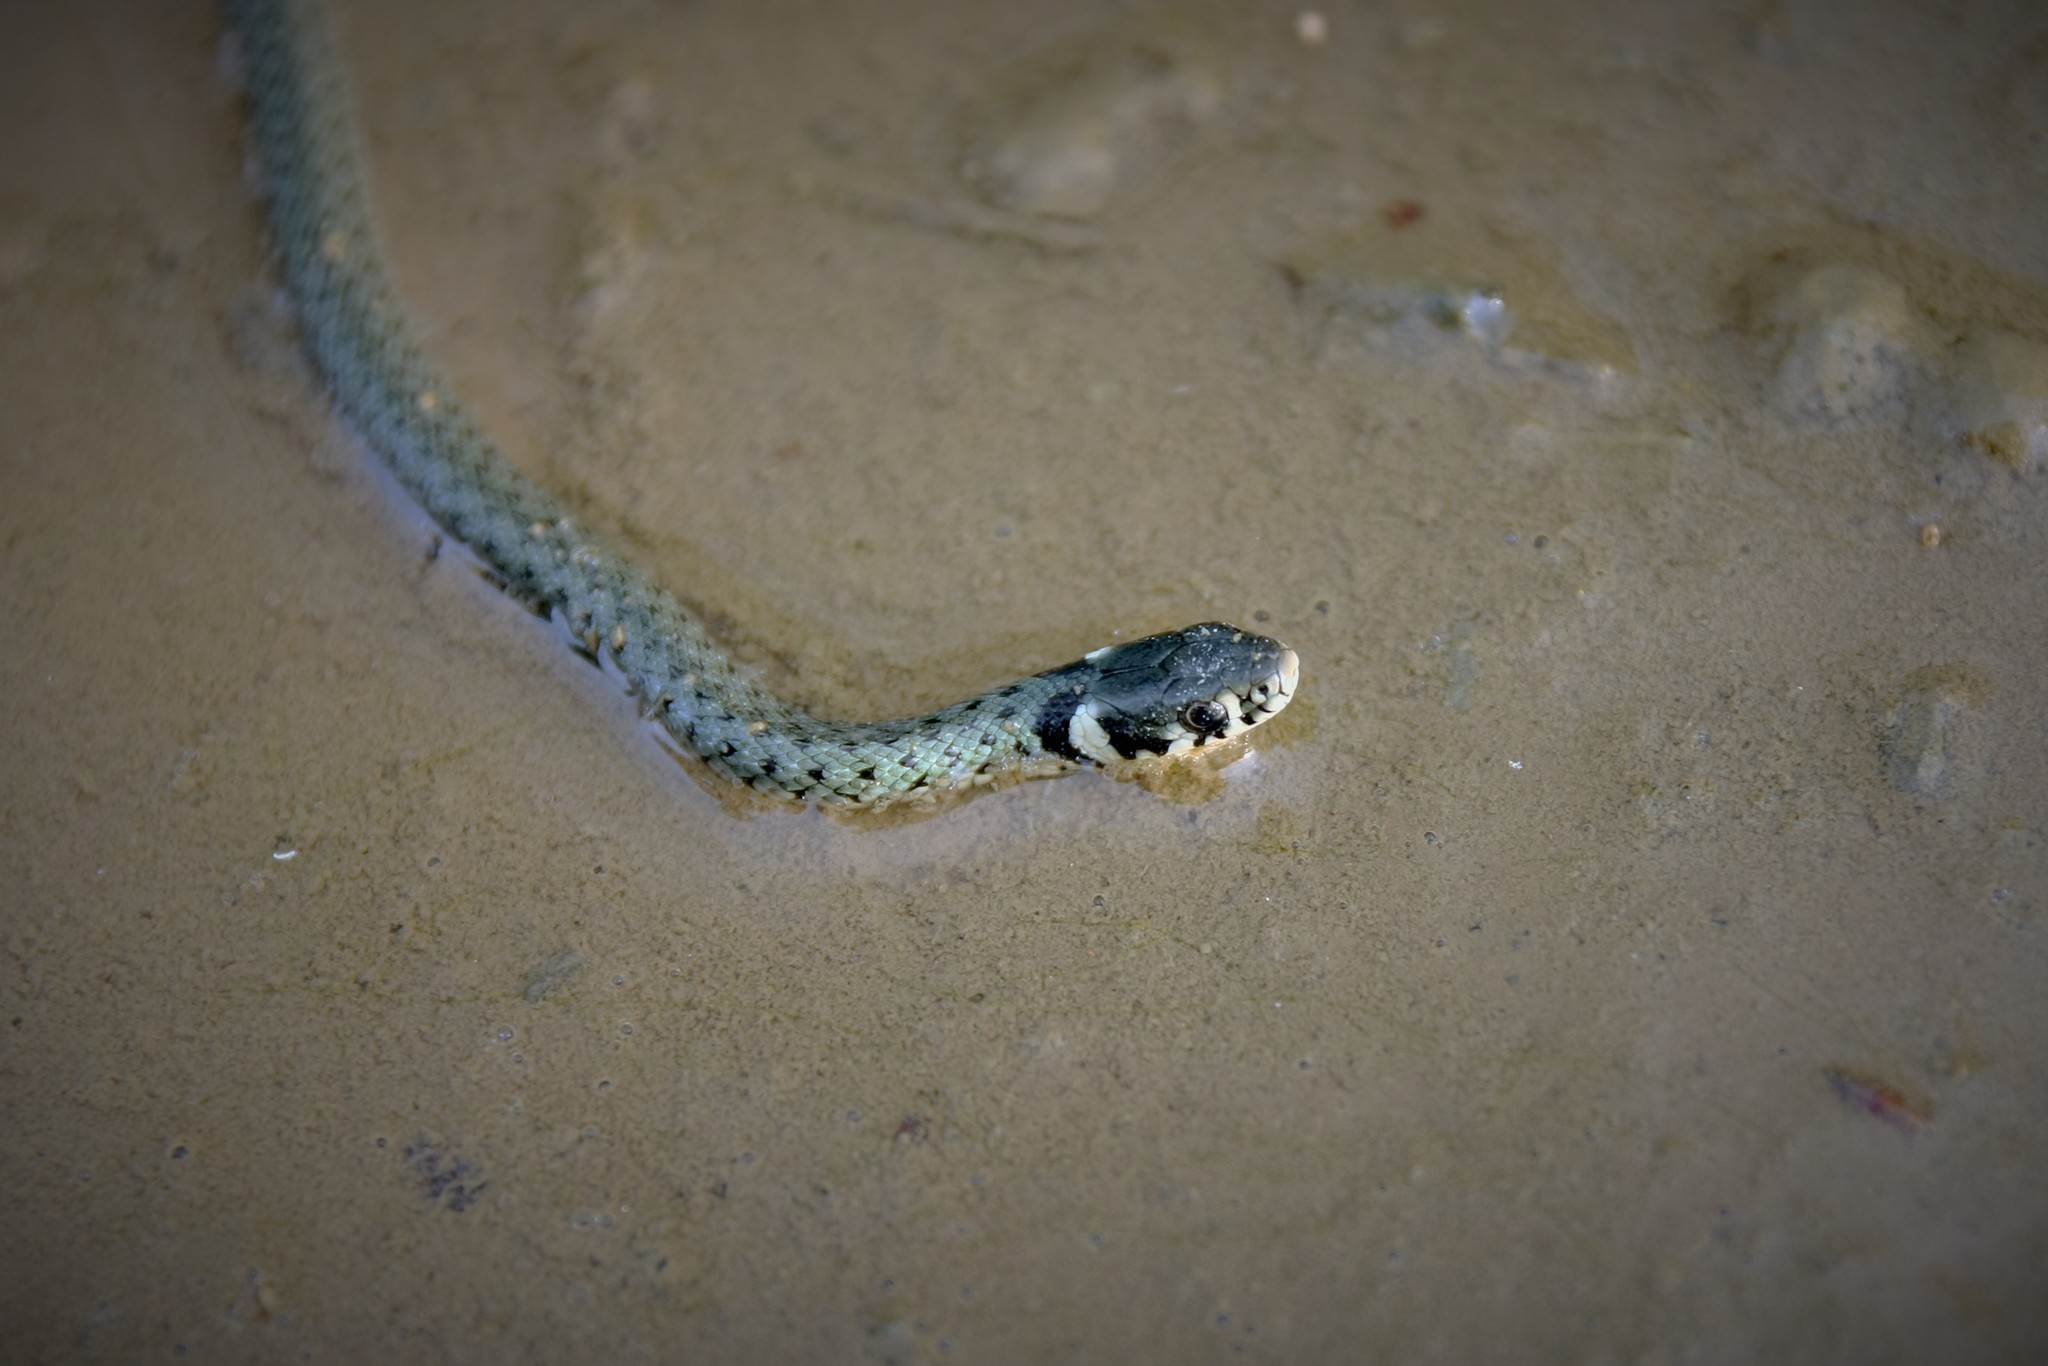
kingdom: Animalia
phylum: Chordata
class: Squamata
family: Colubridae
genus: Natrix
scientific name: Natrix natrix
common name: Grass snake
